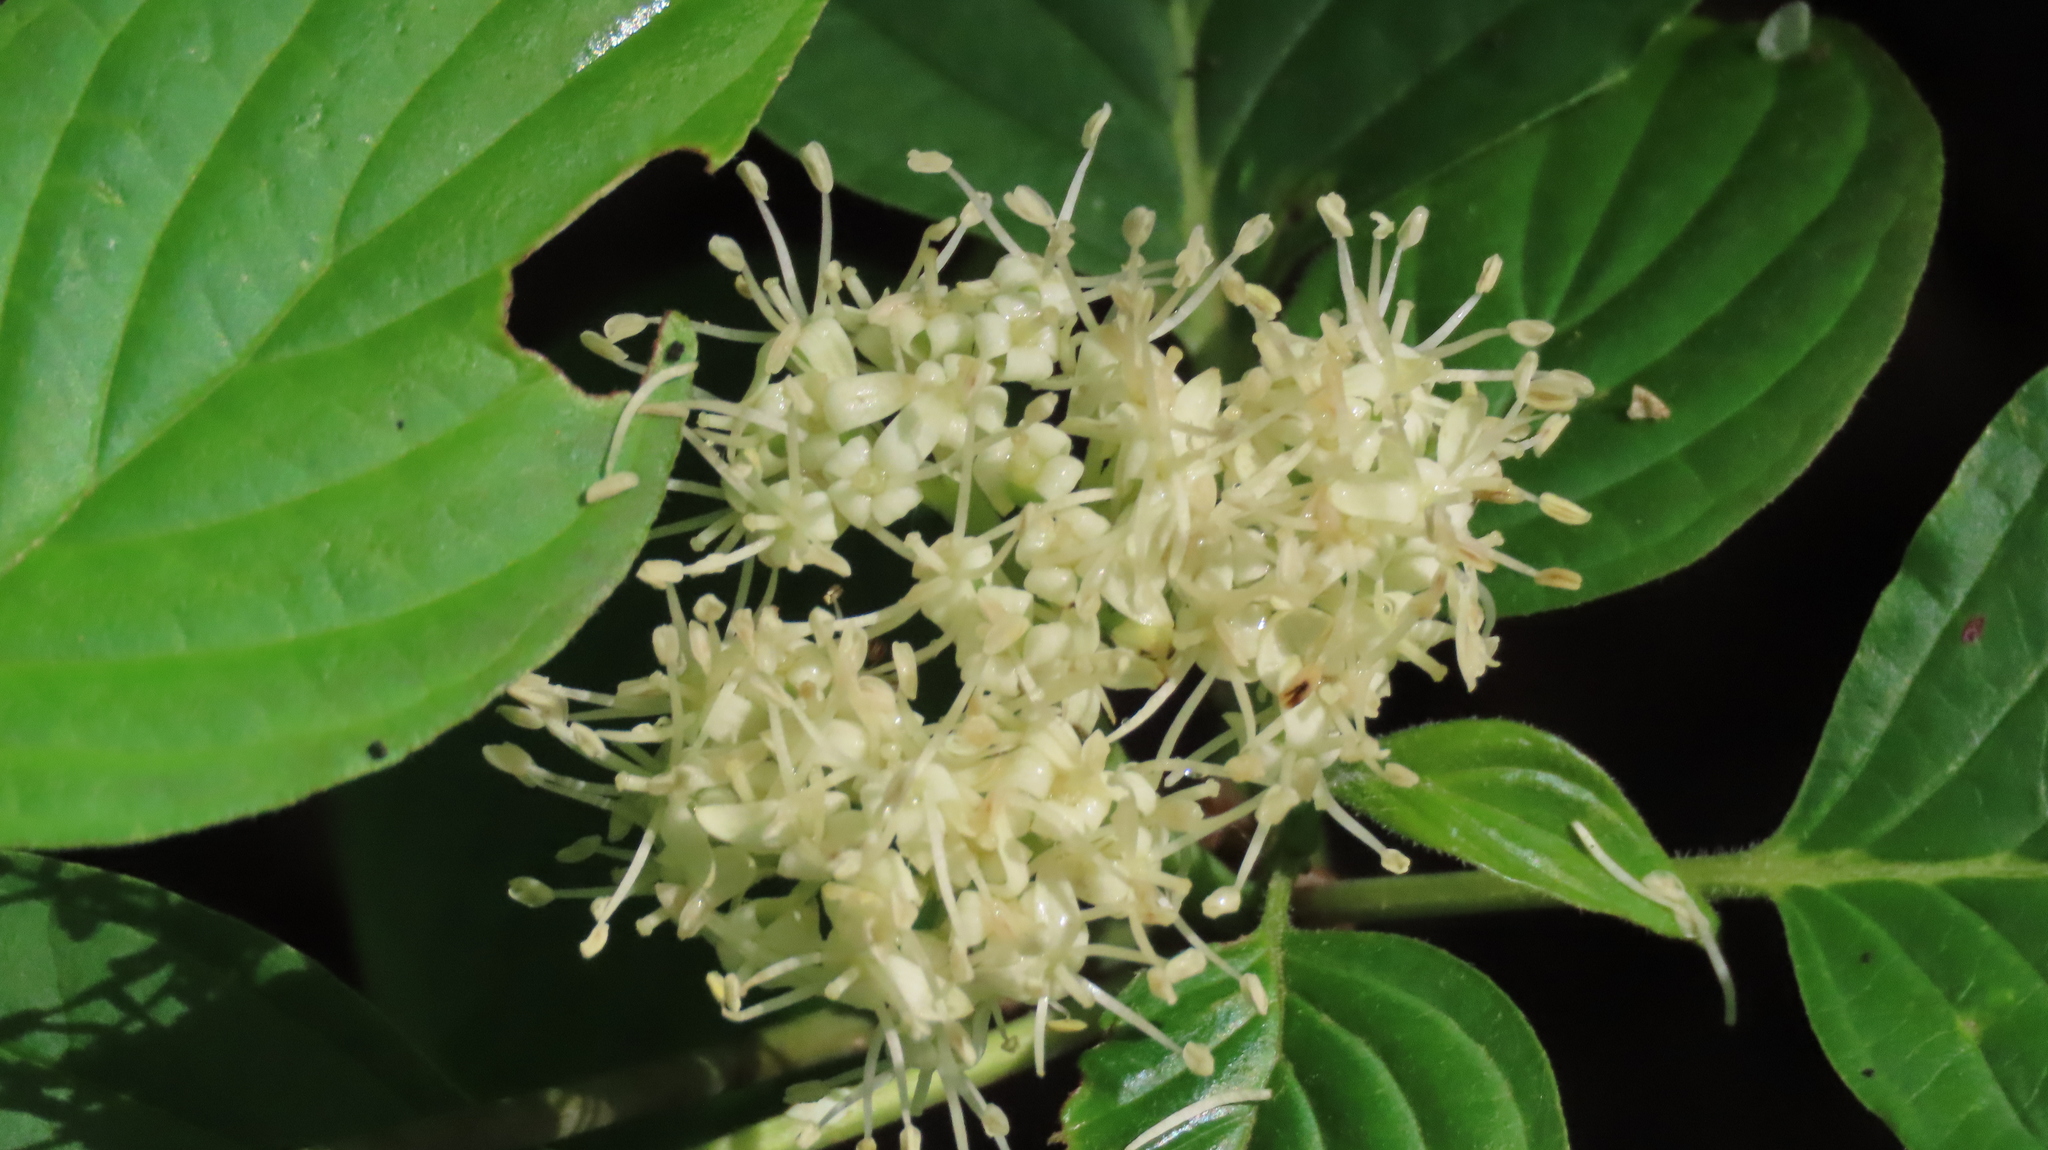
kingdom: Plantae
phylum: Tracheophyta
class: Magnoliopsida
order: Cornales
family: Cornaceae
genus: Cornus
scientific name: Cornus alternifolia
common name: Pagoda dogwood
